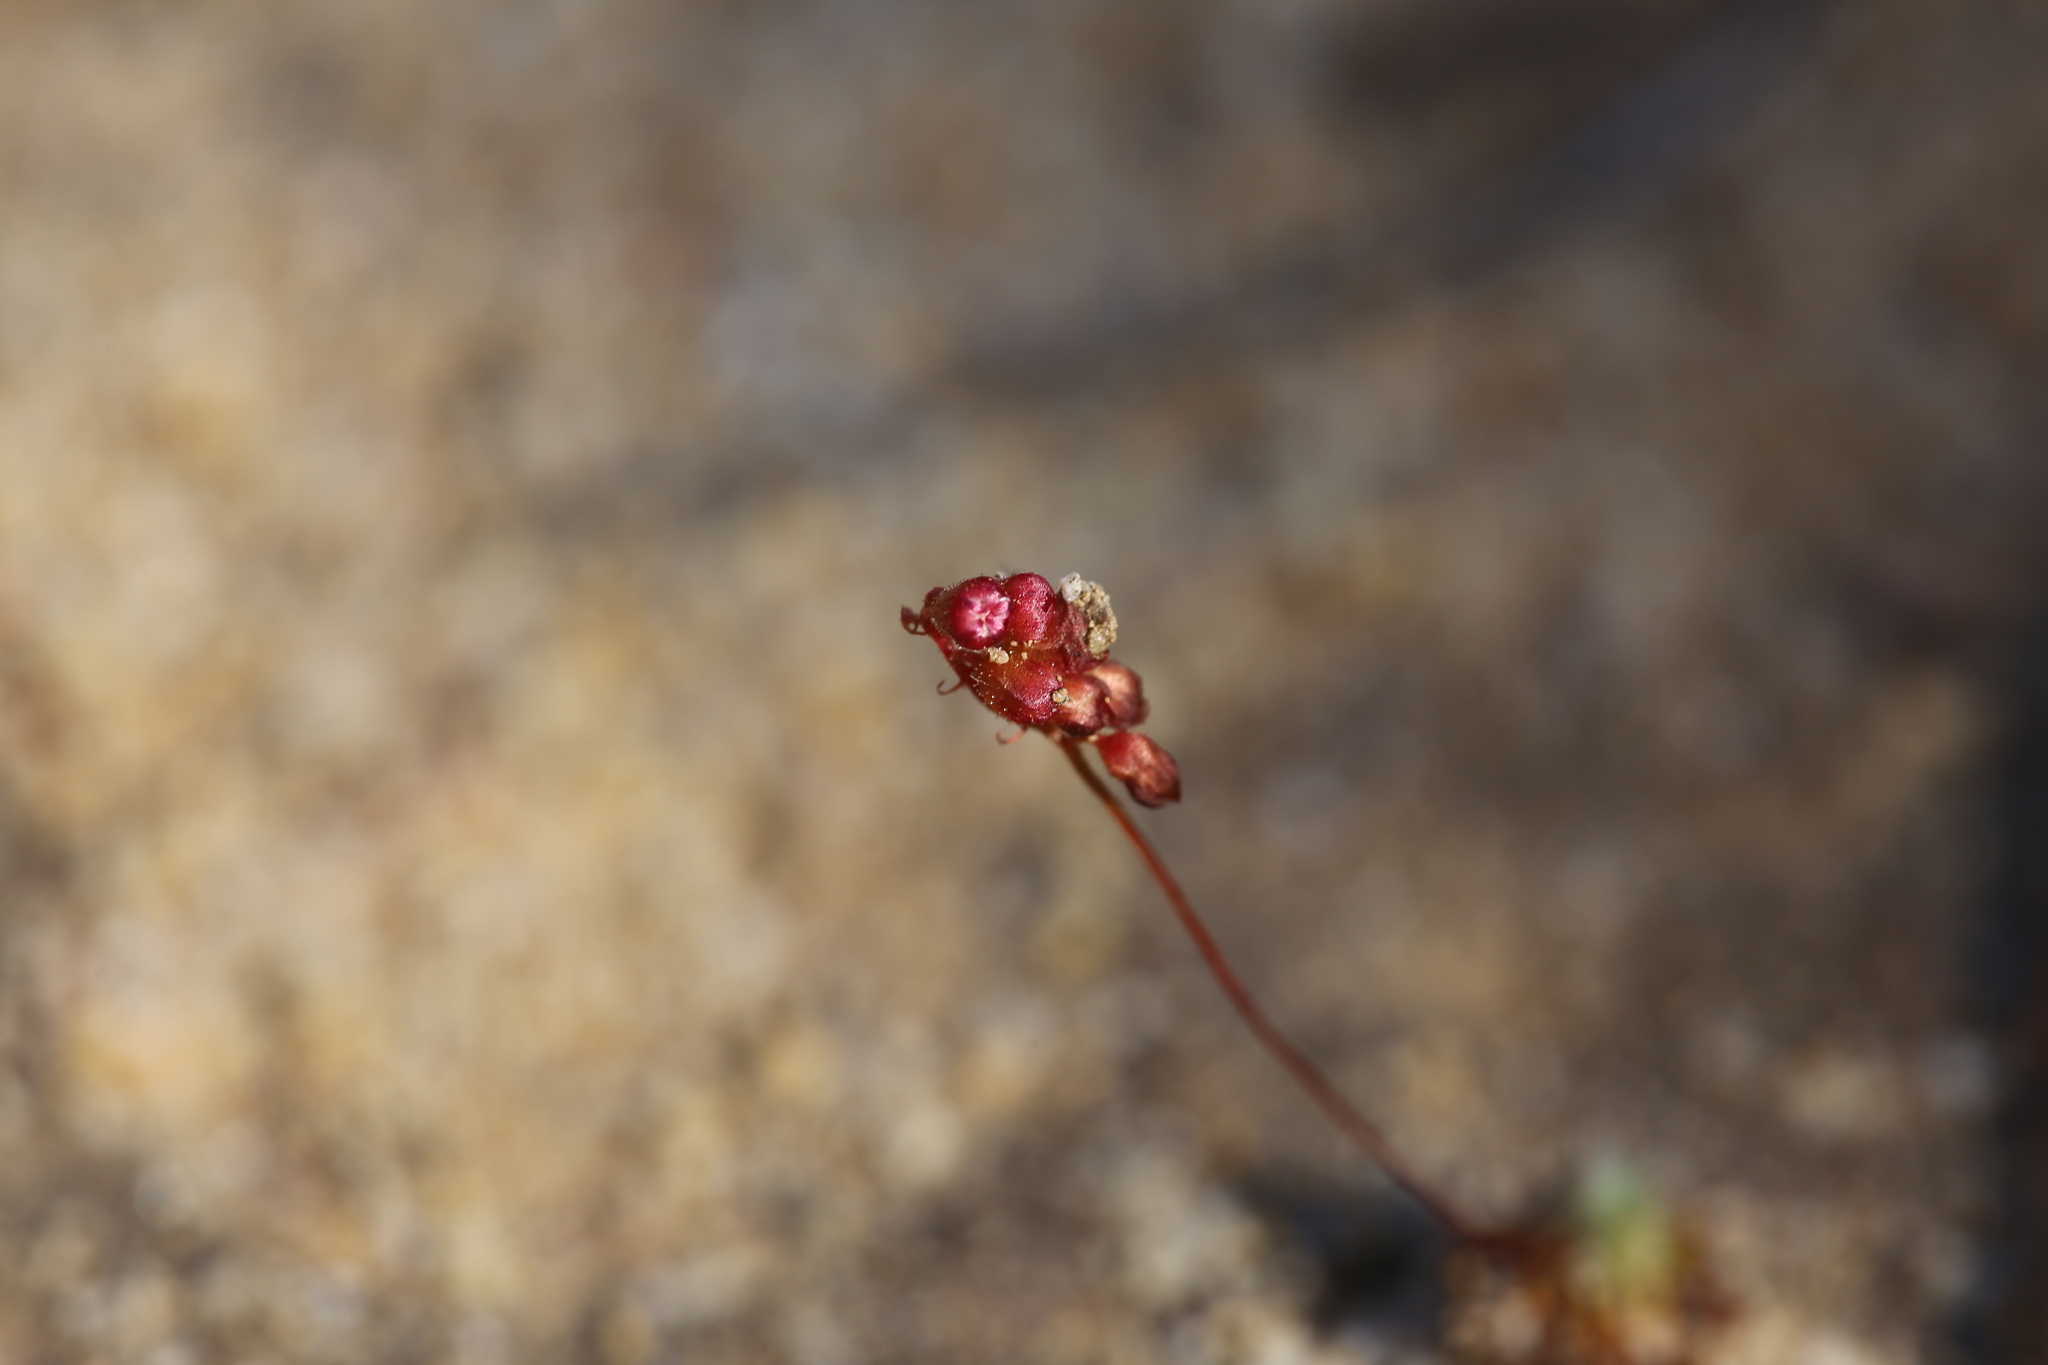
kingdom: Plantae
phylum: Tracheophyta
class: Magnoliopsida
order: Caryophyllales
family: Droseraceae
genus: Drosera
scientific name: Drosera spilos
